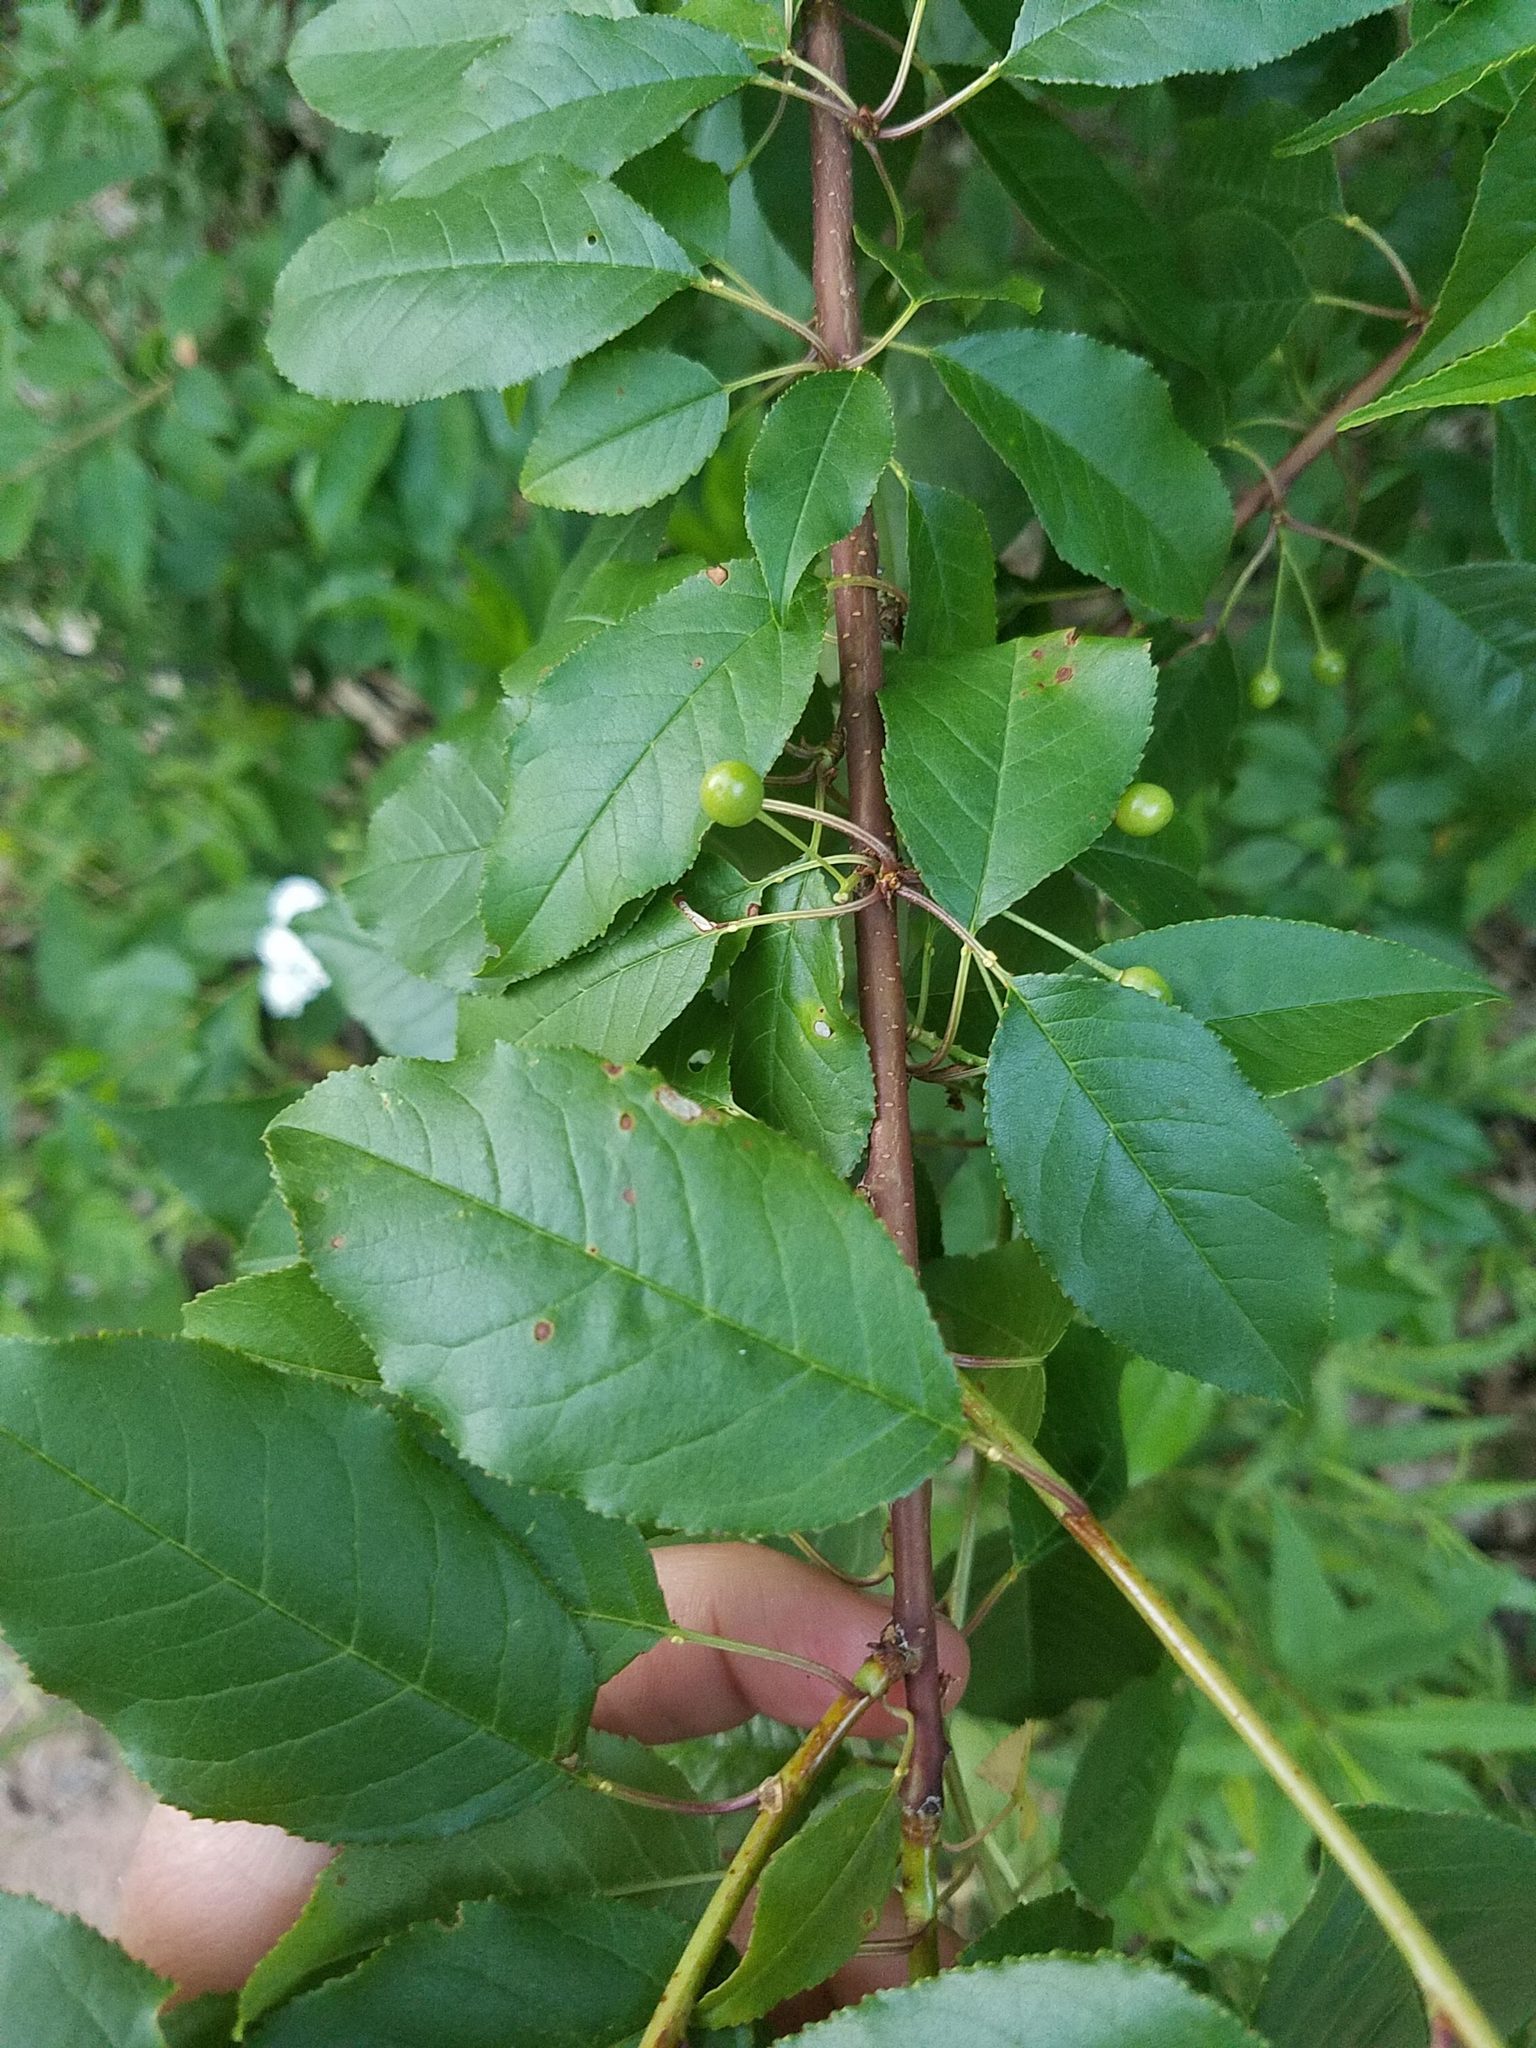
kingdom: Plantae
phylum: Tracheophyta
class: Magnoliopsida
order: Rosales
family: Rosaceae
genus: Prunus
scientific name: Prunus pensylvanica
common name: Pin cherry
